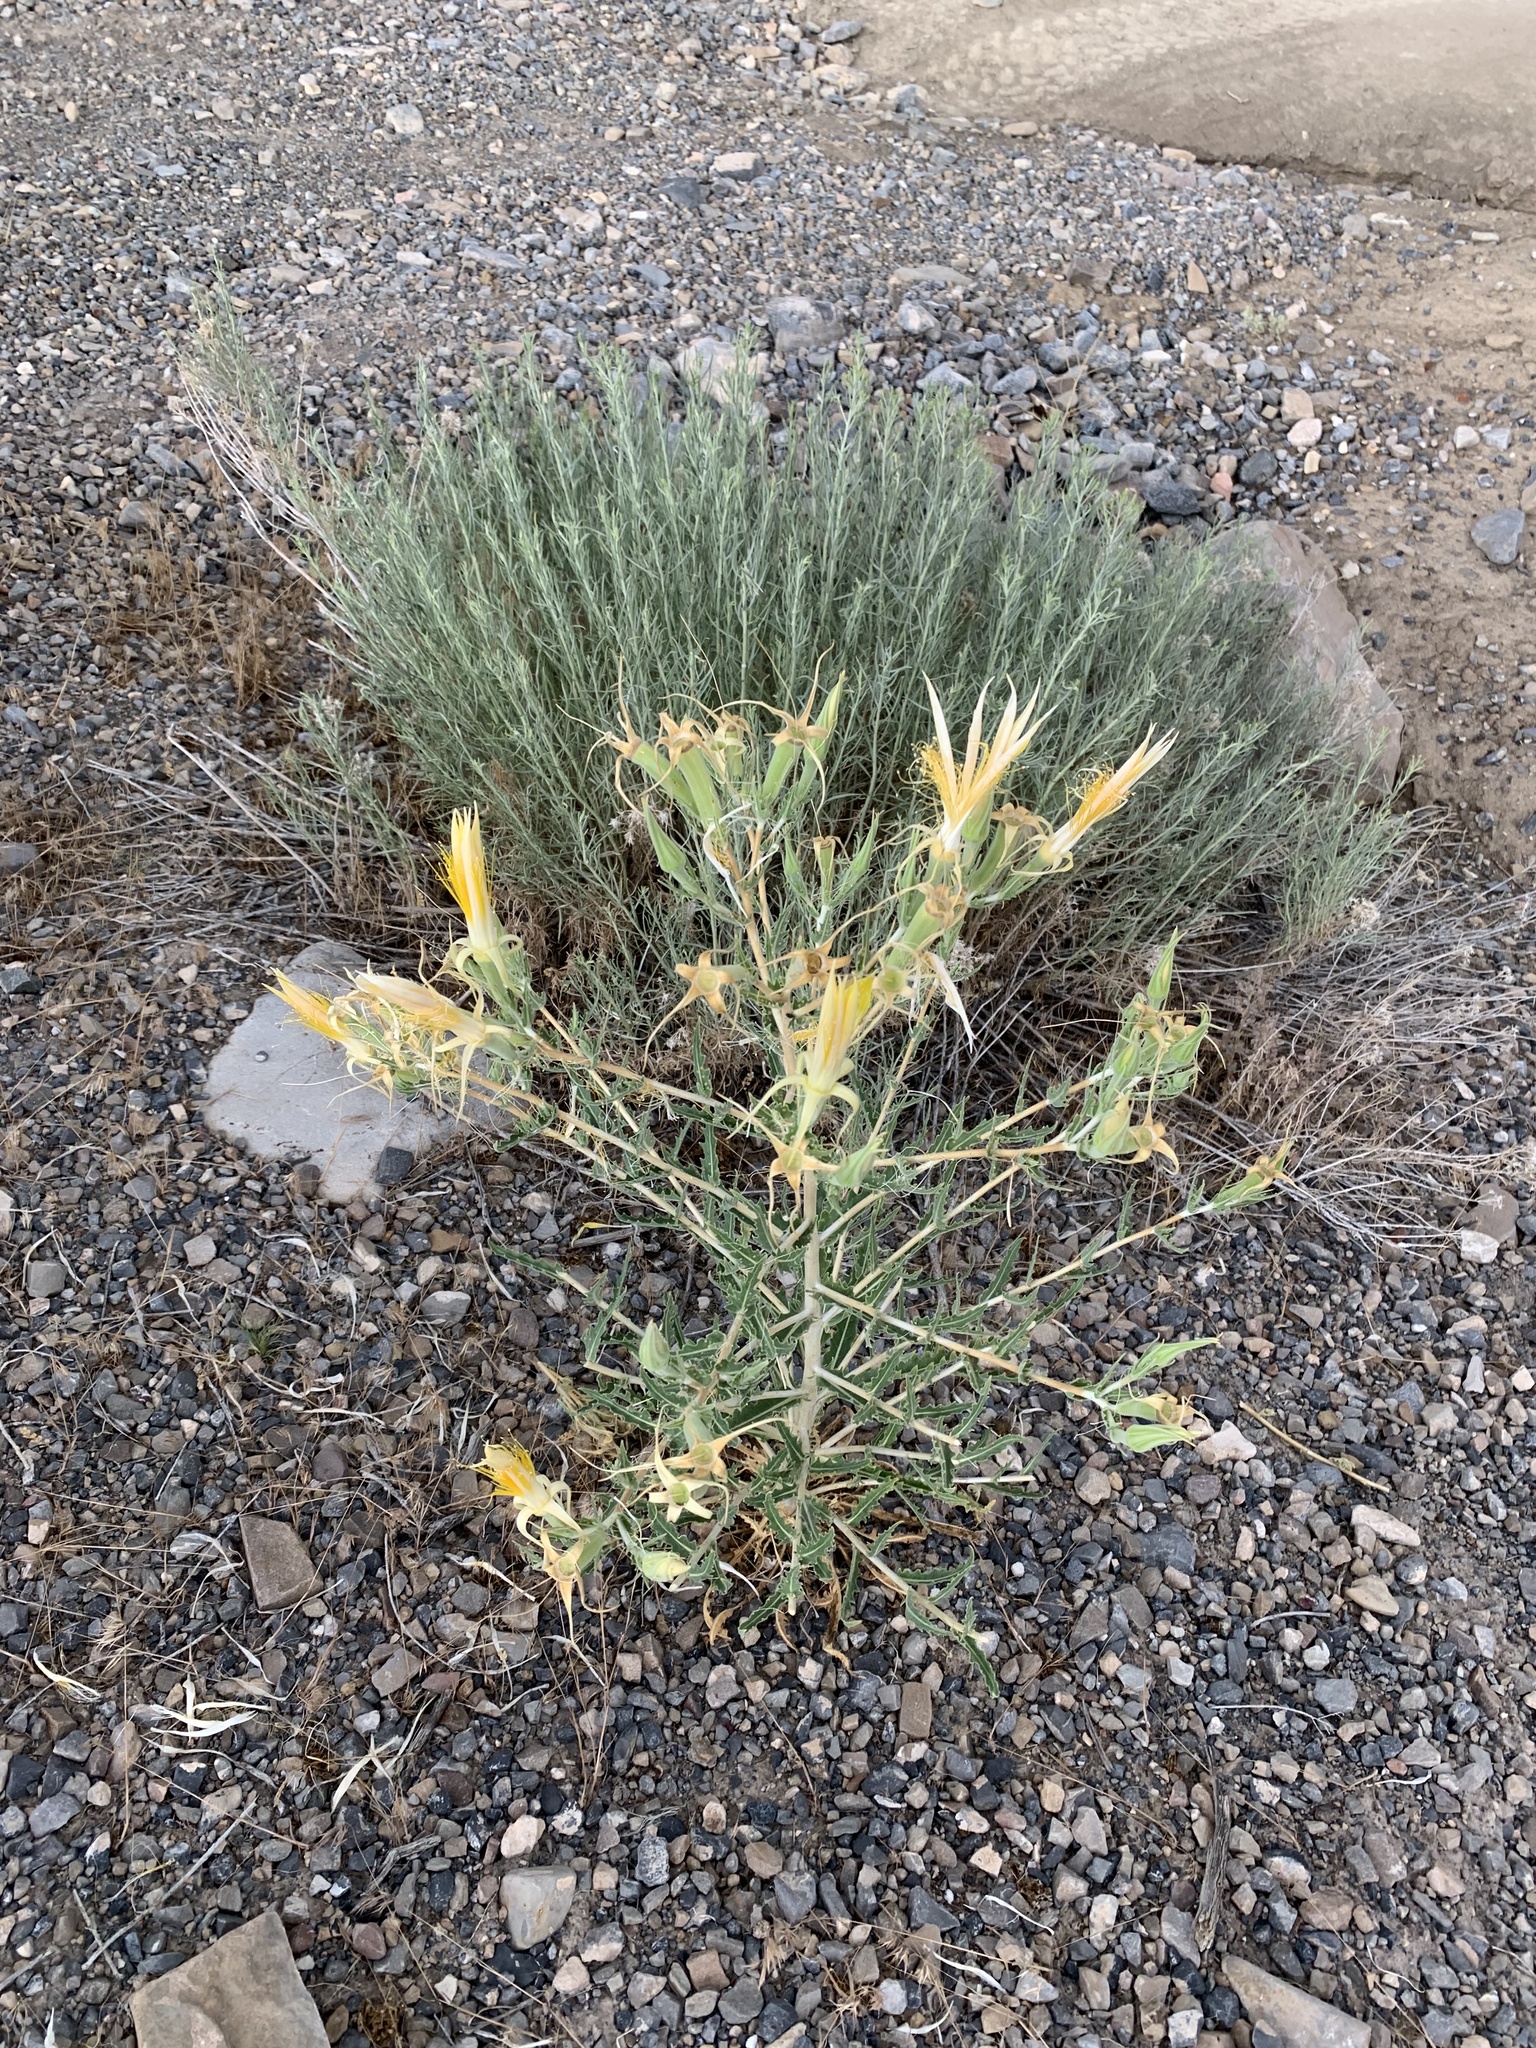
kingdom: Plantae
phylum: Tracheophyta
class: Magnoliopsida
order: Cornales
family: Loasaceae
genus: Mentzelia
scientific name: Mentzelia laevicaulis
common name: Smooth-stem blazingstar
